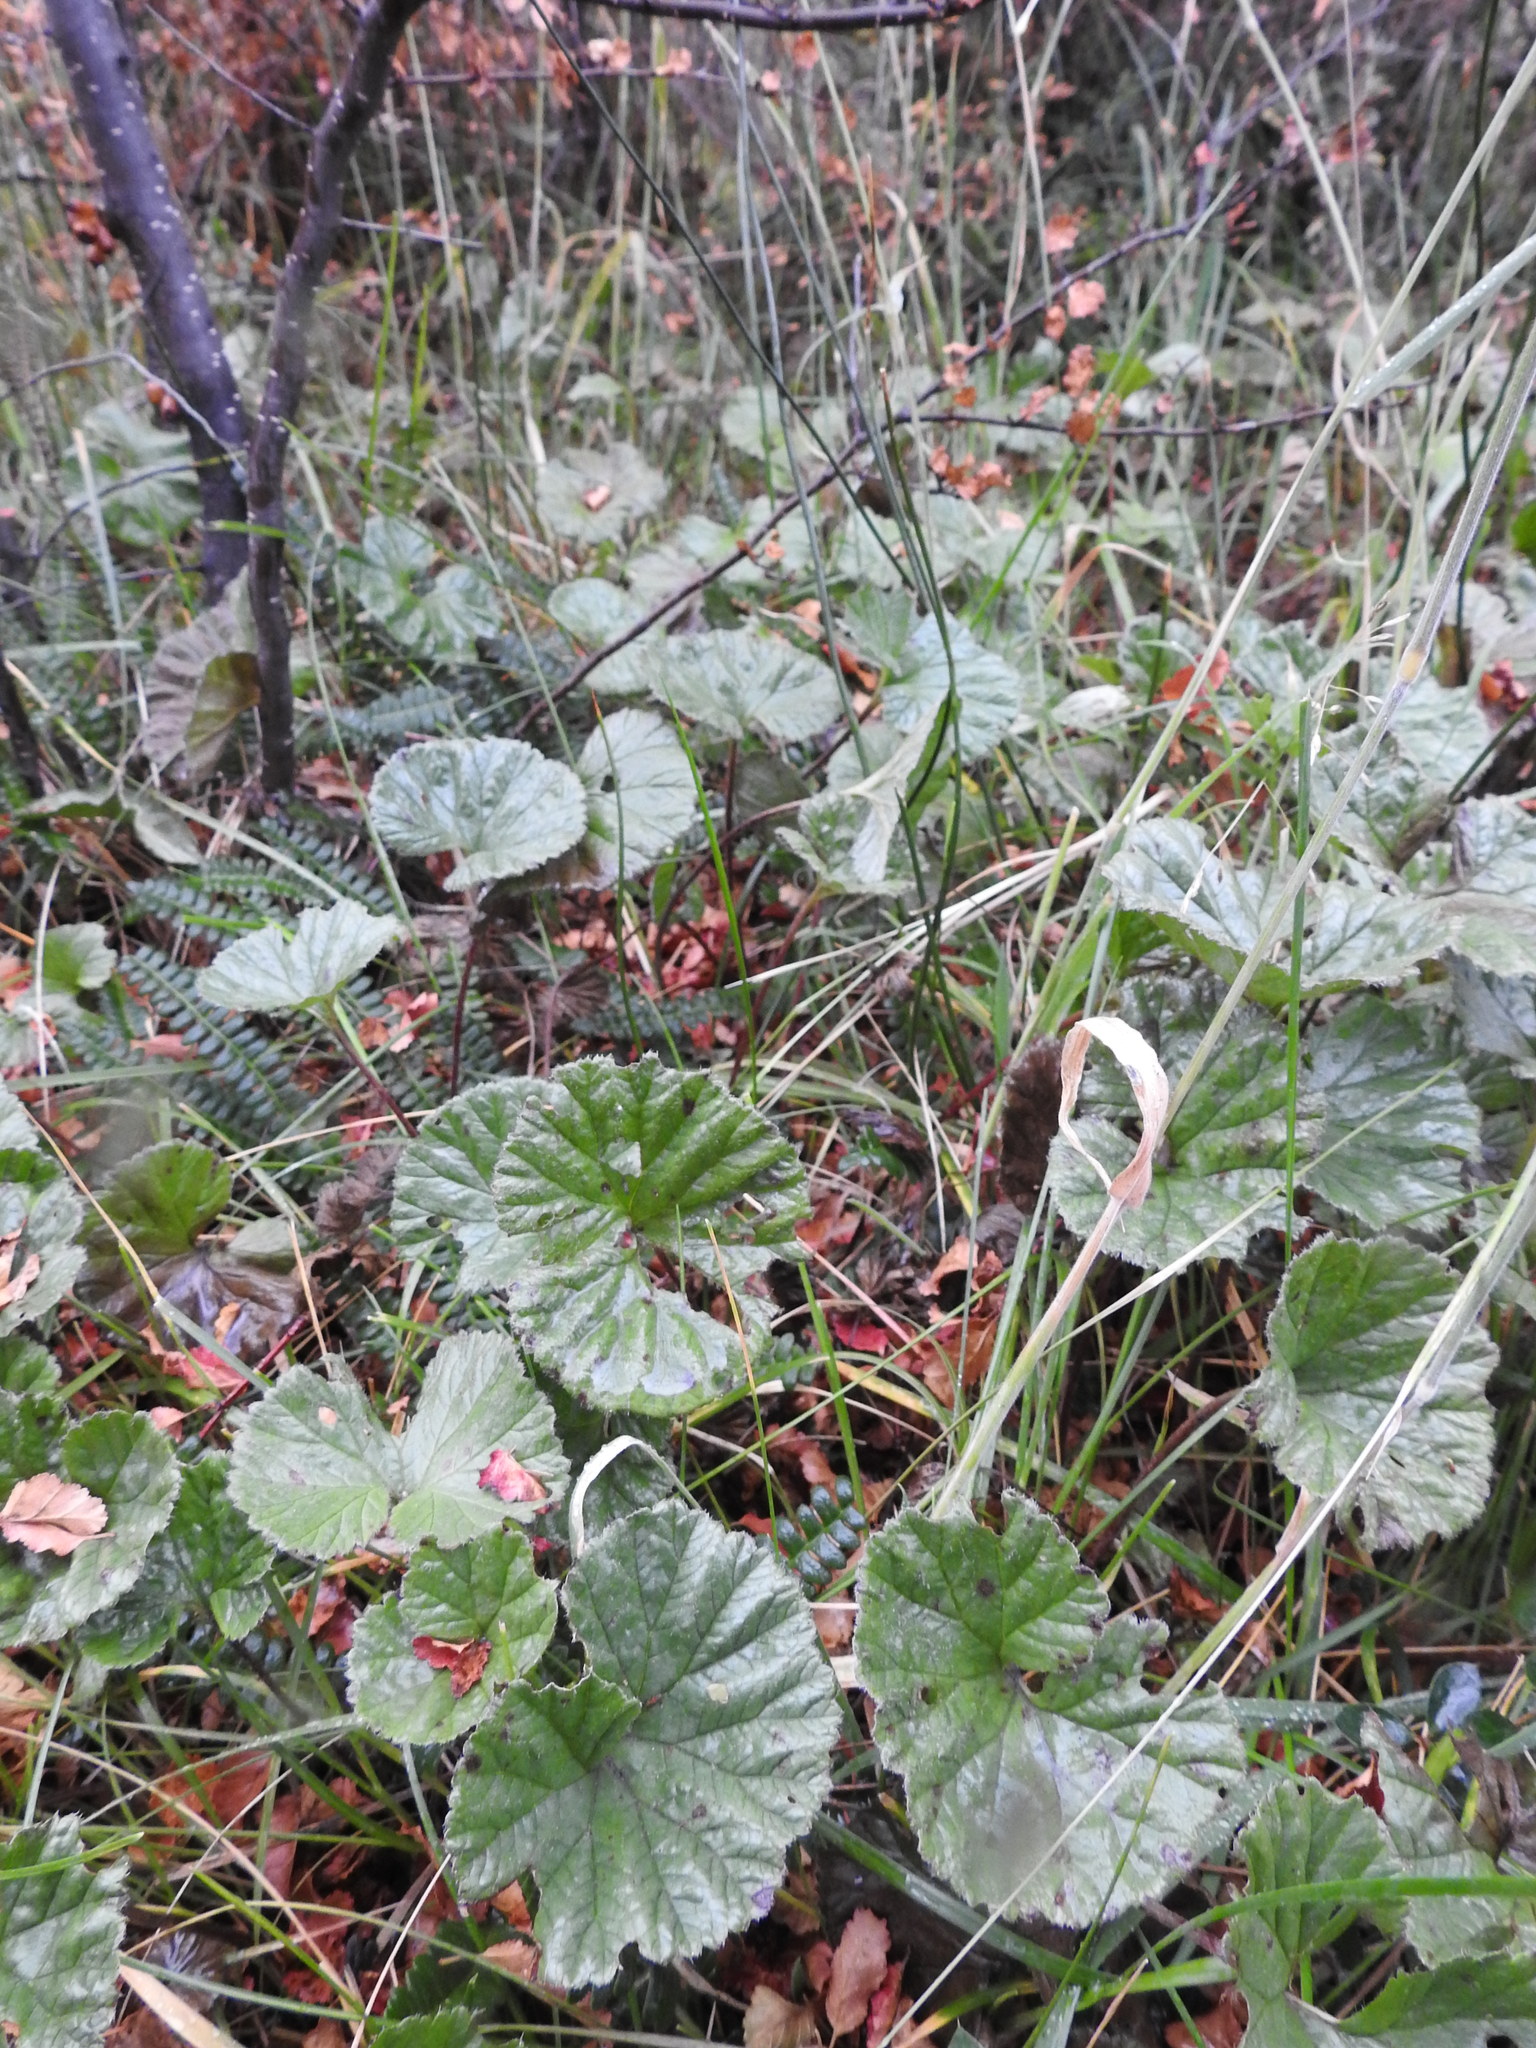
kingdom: Plantae
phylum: Tracheophyta
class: Magnoliopsida
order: Gunnerales
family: Gunneraceae
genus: Gunnera
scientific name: Gunnera magellanica
